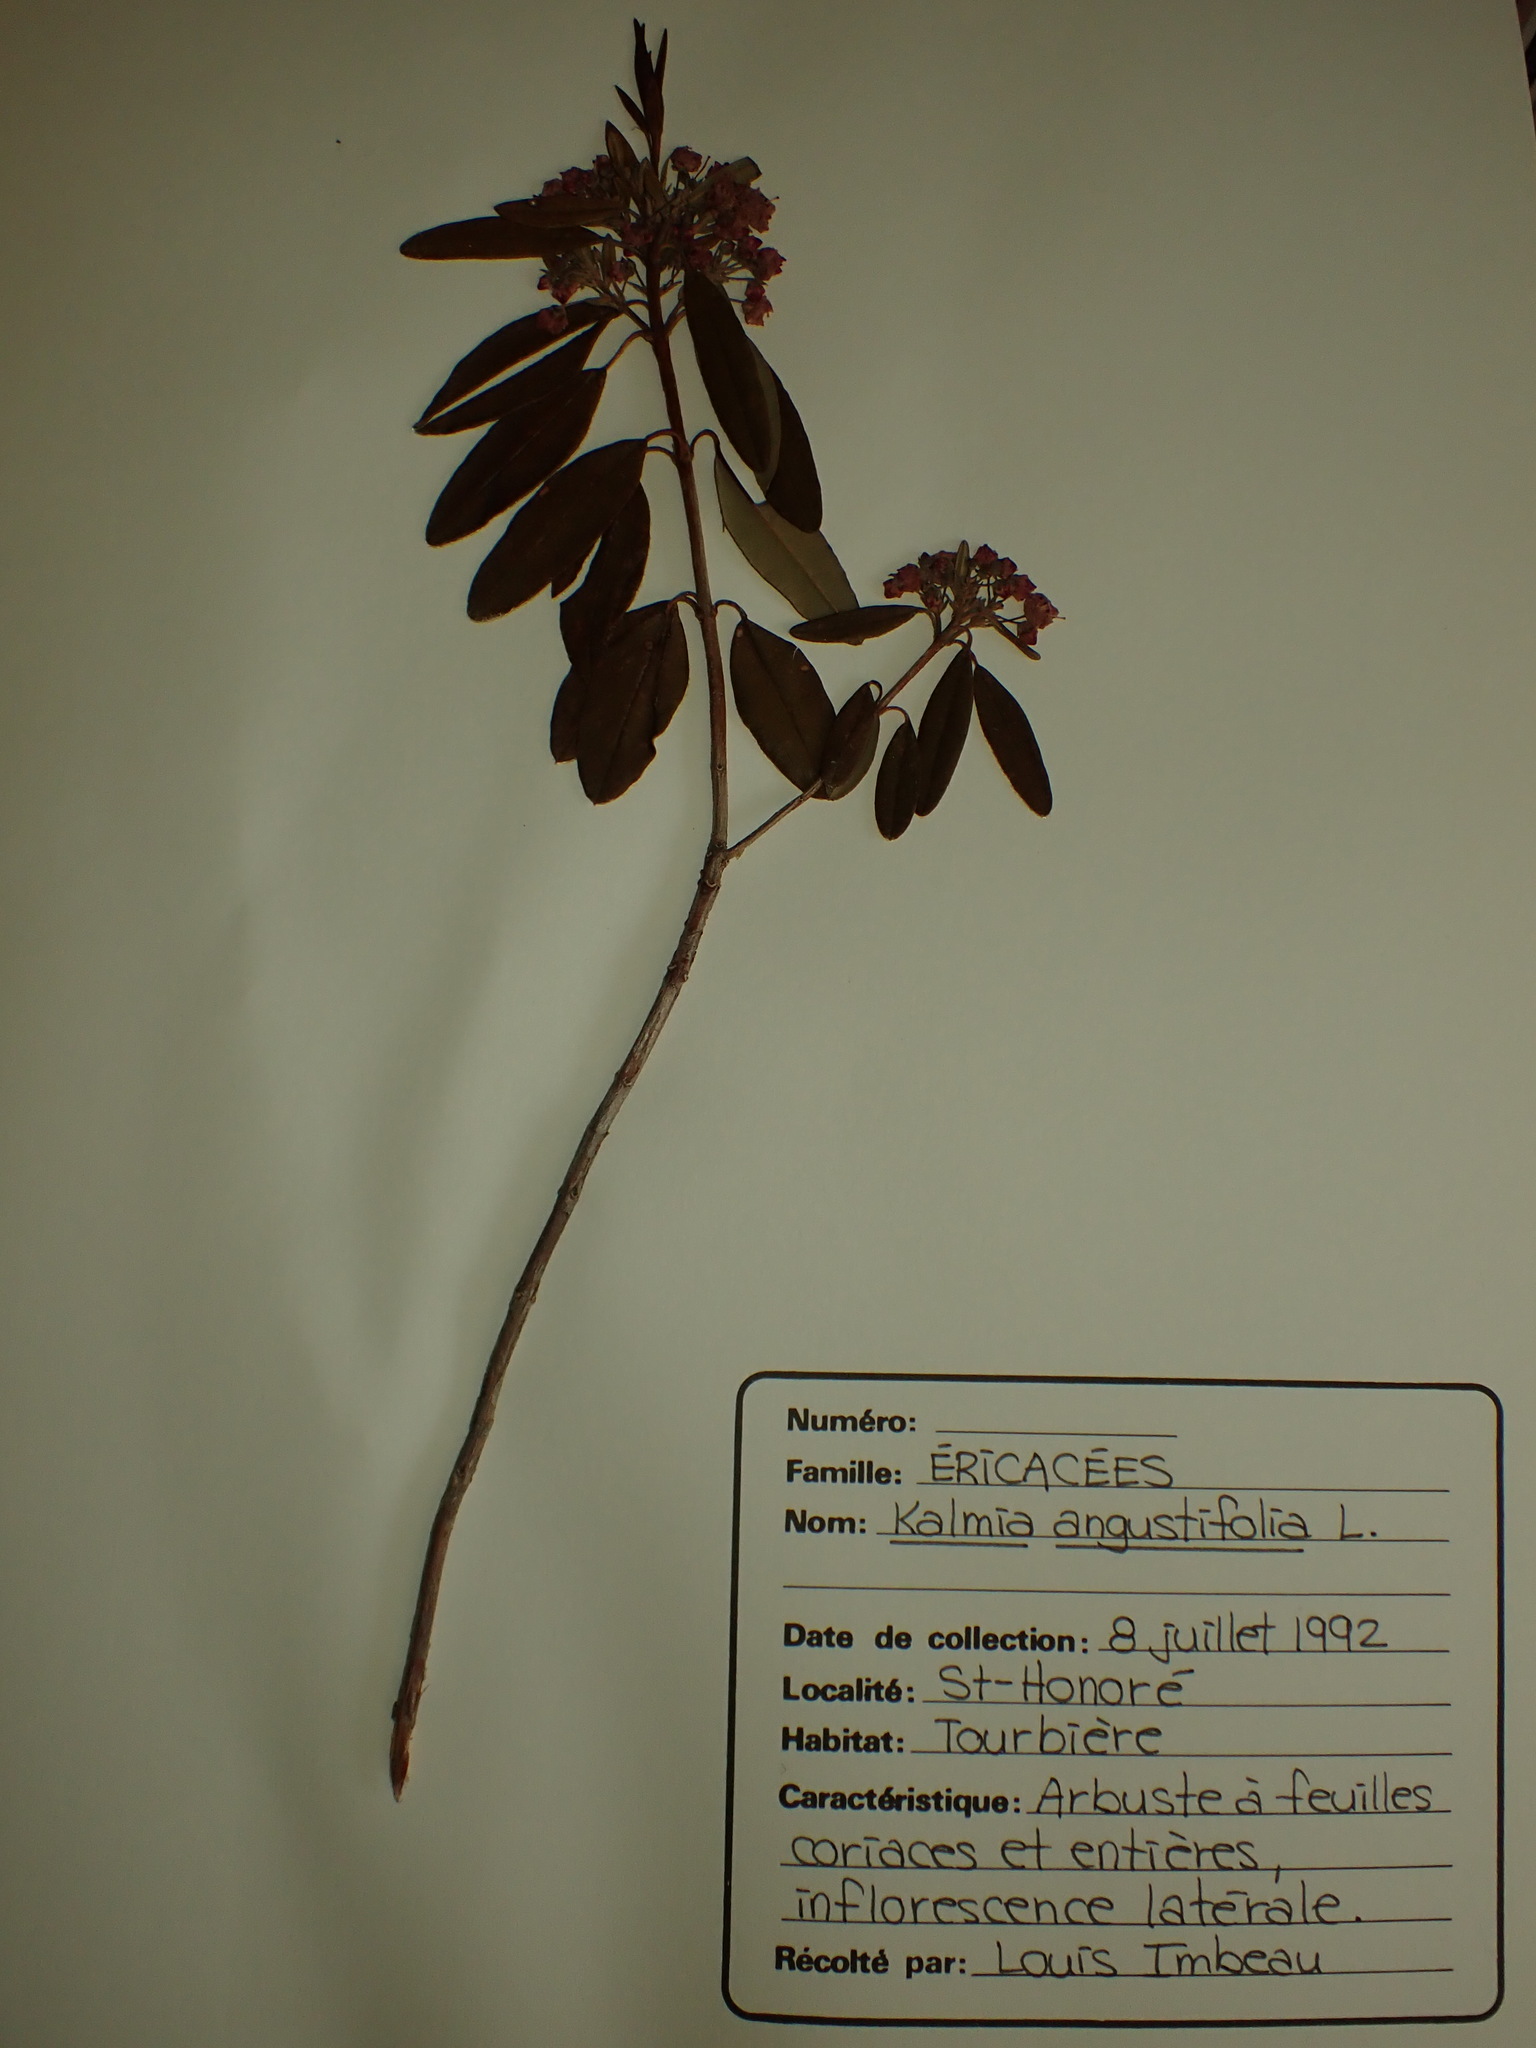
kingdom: Plantae
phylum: Tracheophyta
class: Magnoliopsida
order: Ericales
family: Ericaceae
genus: Kalmia
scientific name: Kalmia angustifolia
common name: Sheep-laurel
